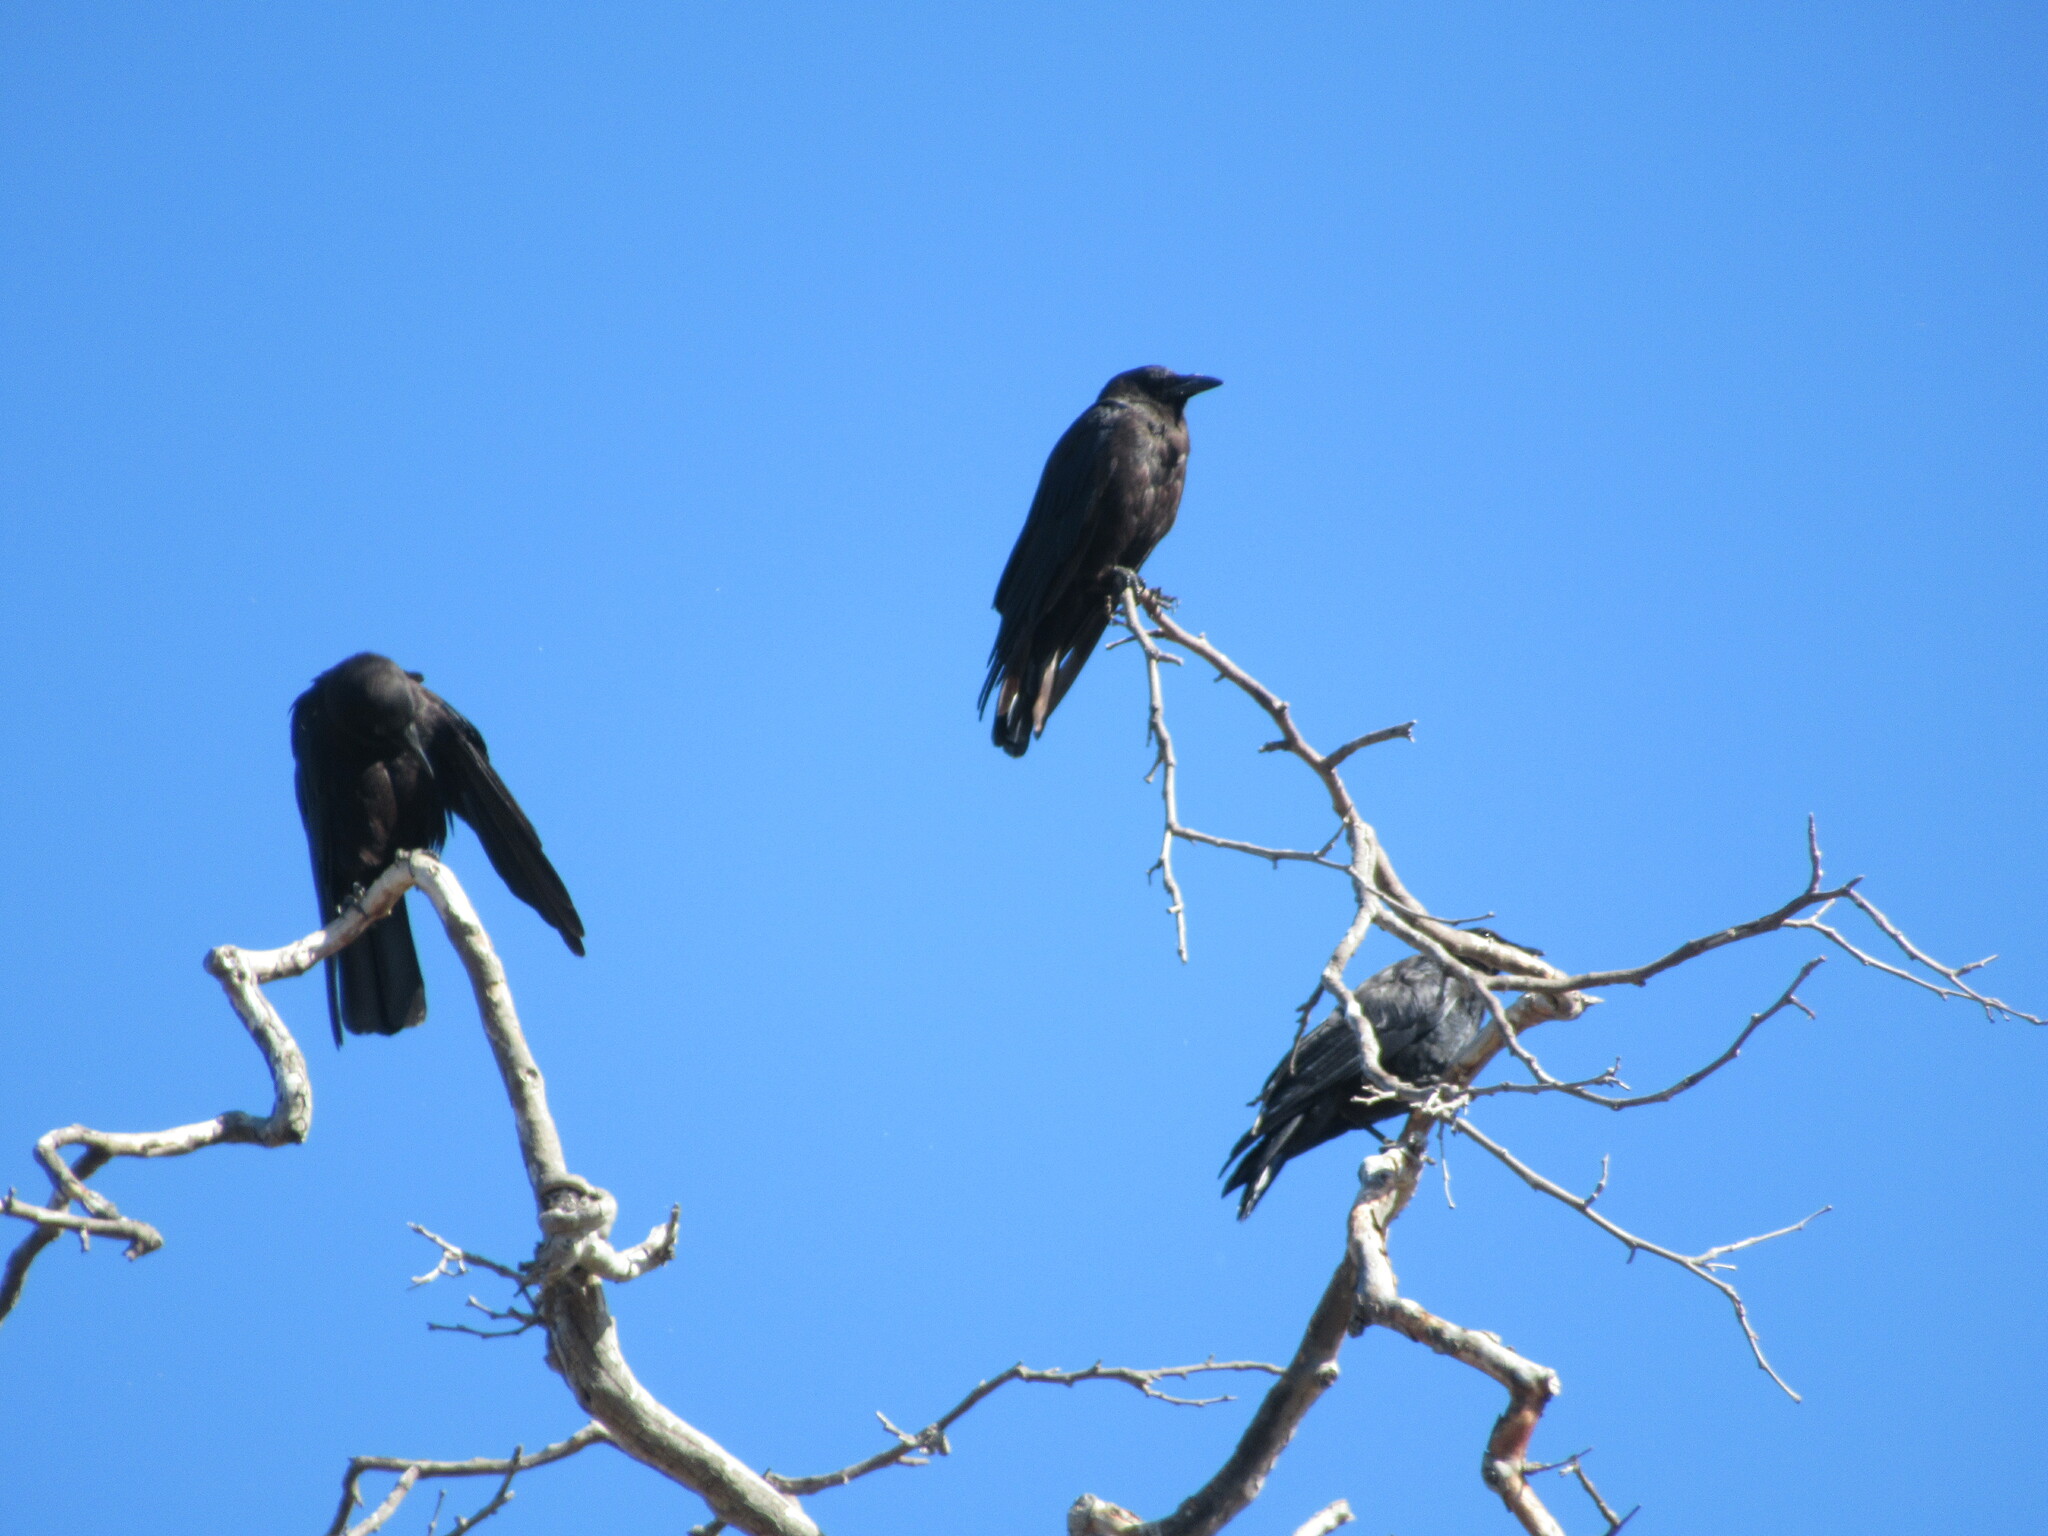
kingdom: Animalia
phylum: Chordata
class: Aves
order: Passeriformes
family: Corvidae
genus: Corvus
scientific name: Corvus brachyrhynchos
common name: American crow
